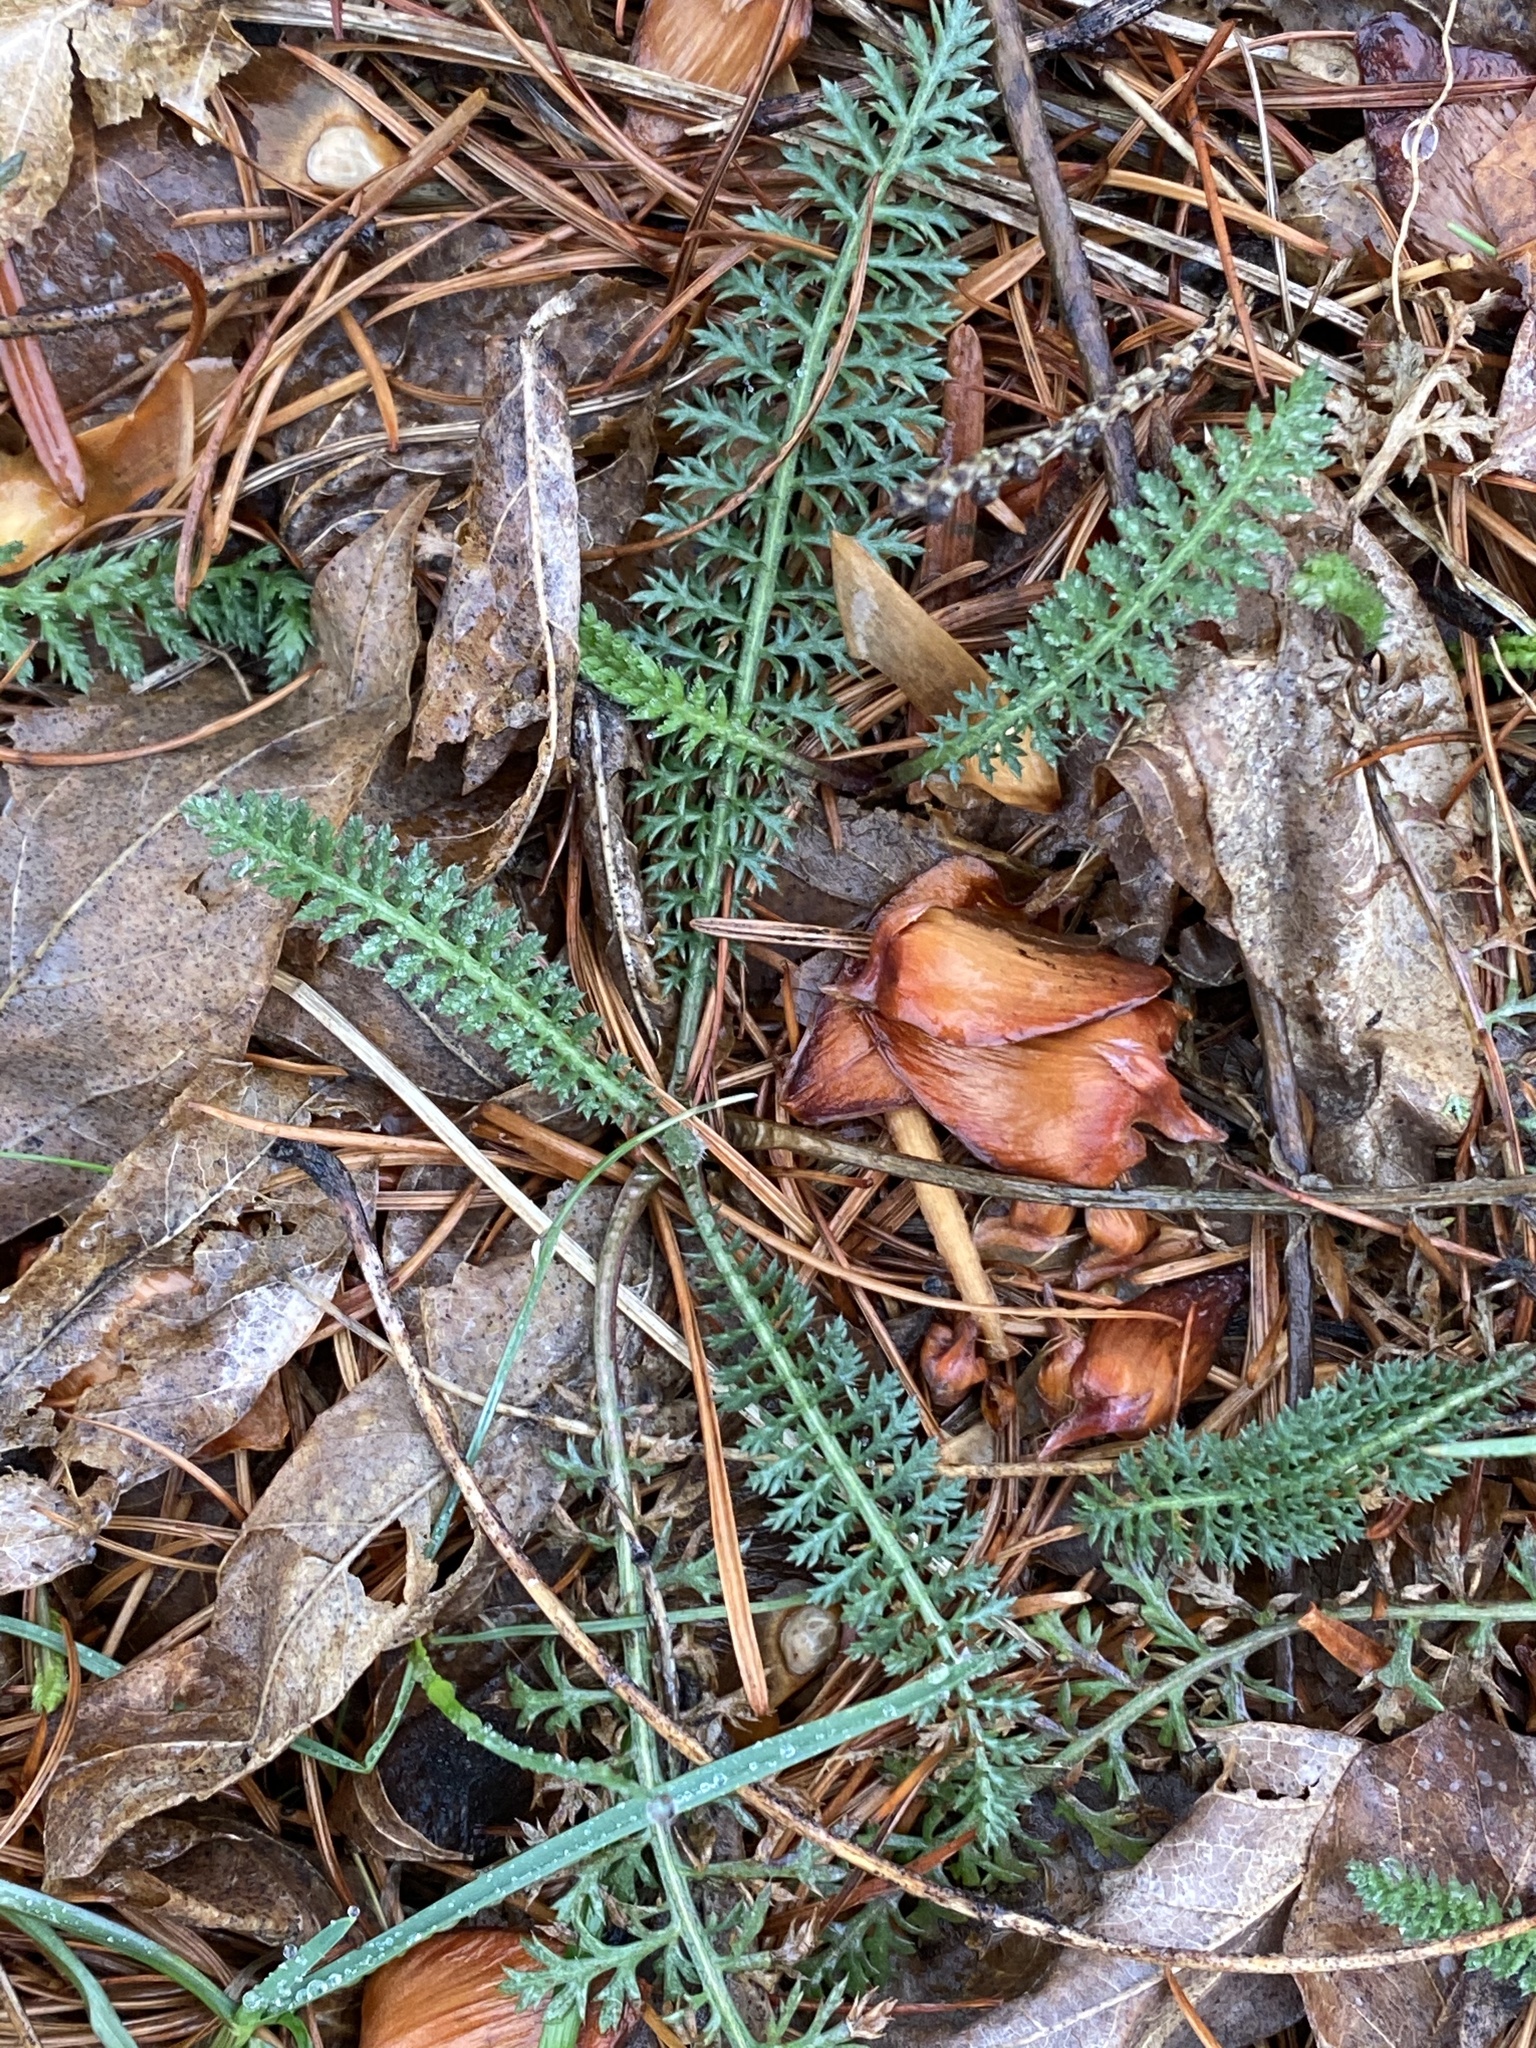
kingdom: Plantae
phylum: Tracheophyta
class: Magnoliopsida
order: Asterales
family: Asteraceae
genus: Achillea
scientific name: Achillea millefolium
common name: Yarrow
